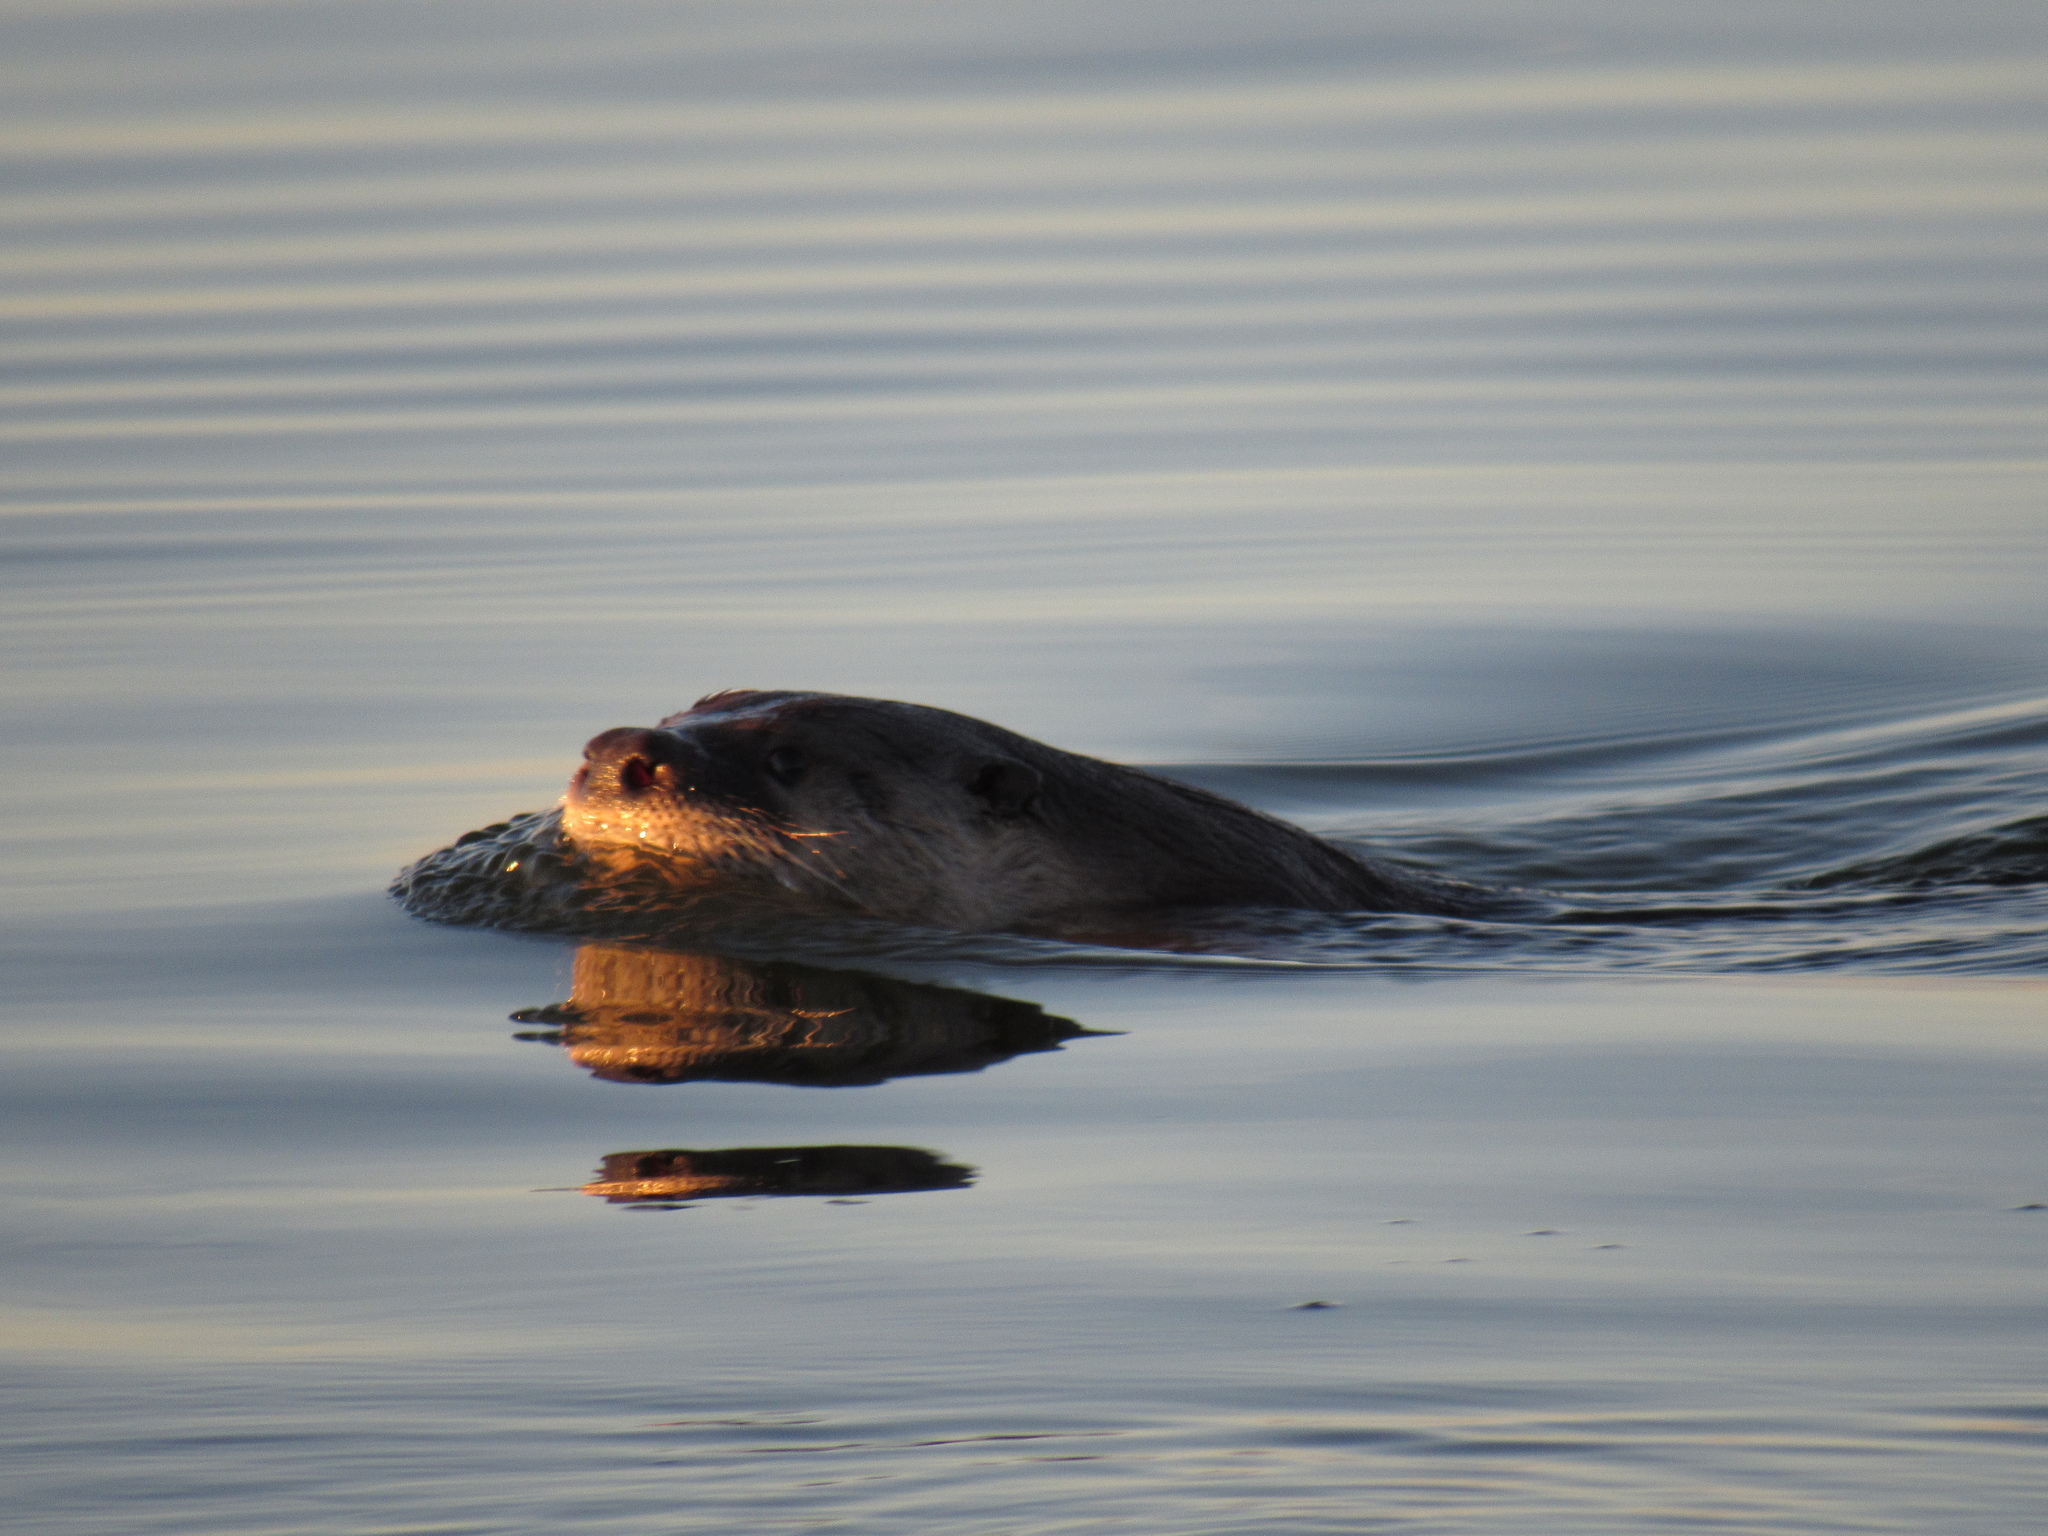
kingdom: Animalia
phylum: Chordata
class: Mammalia
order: Carnivora
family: Mustelidae
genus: Lontra
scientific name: Lontra canadensis
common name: North american river otter
